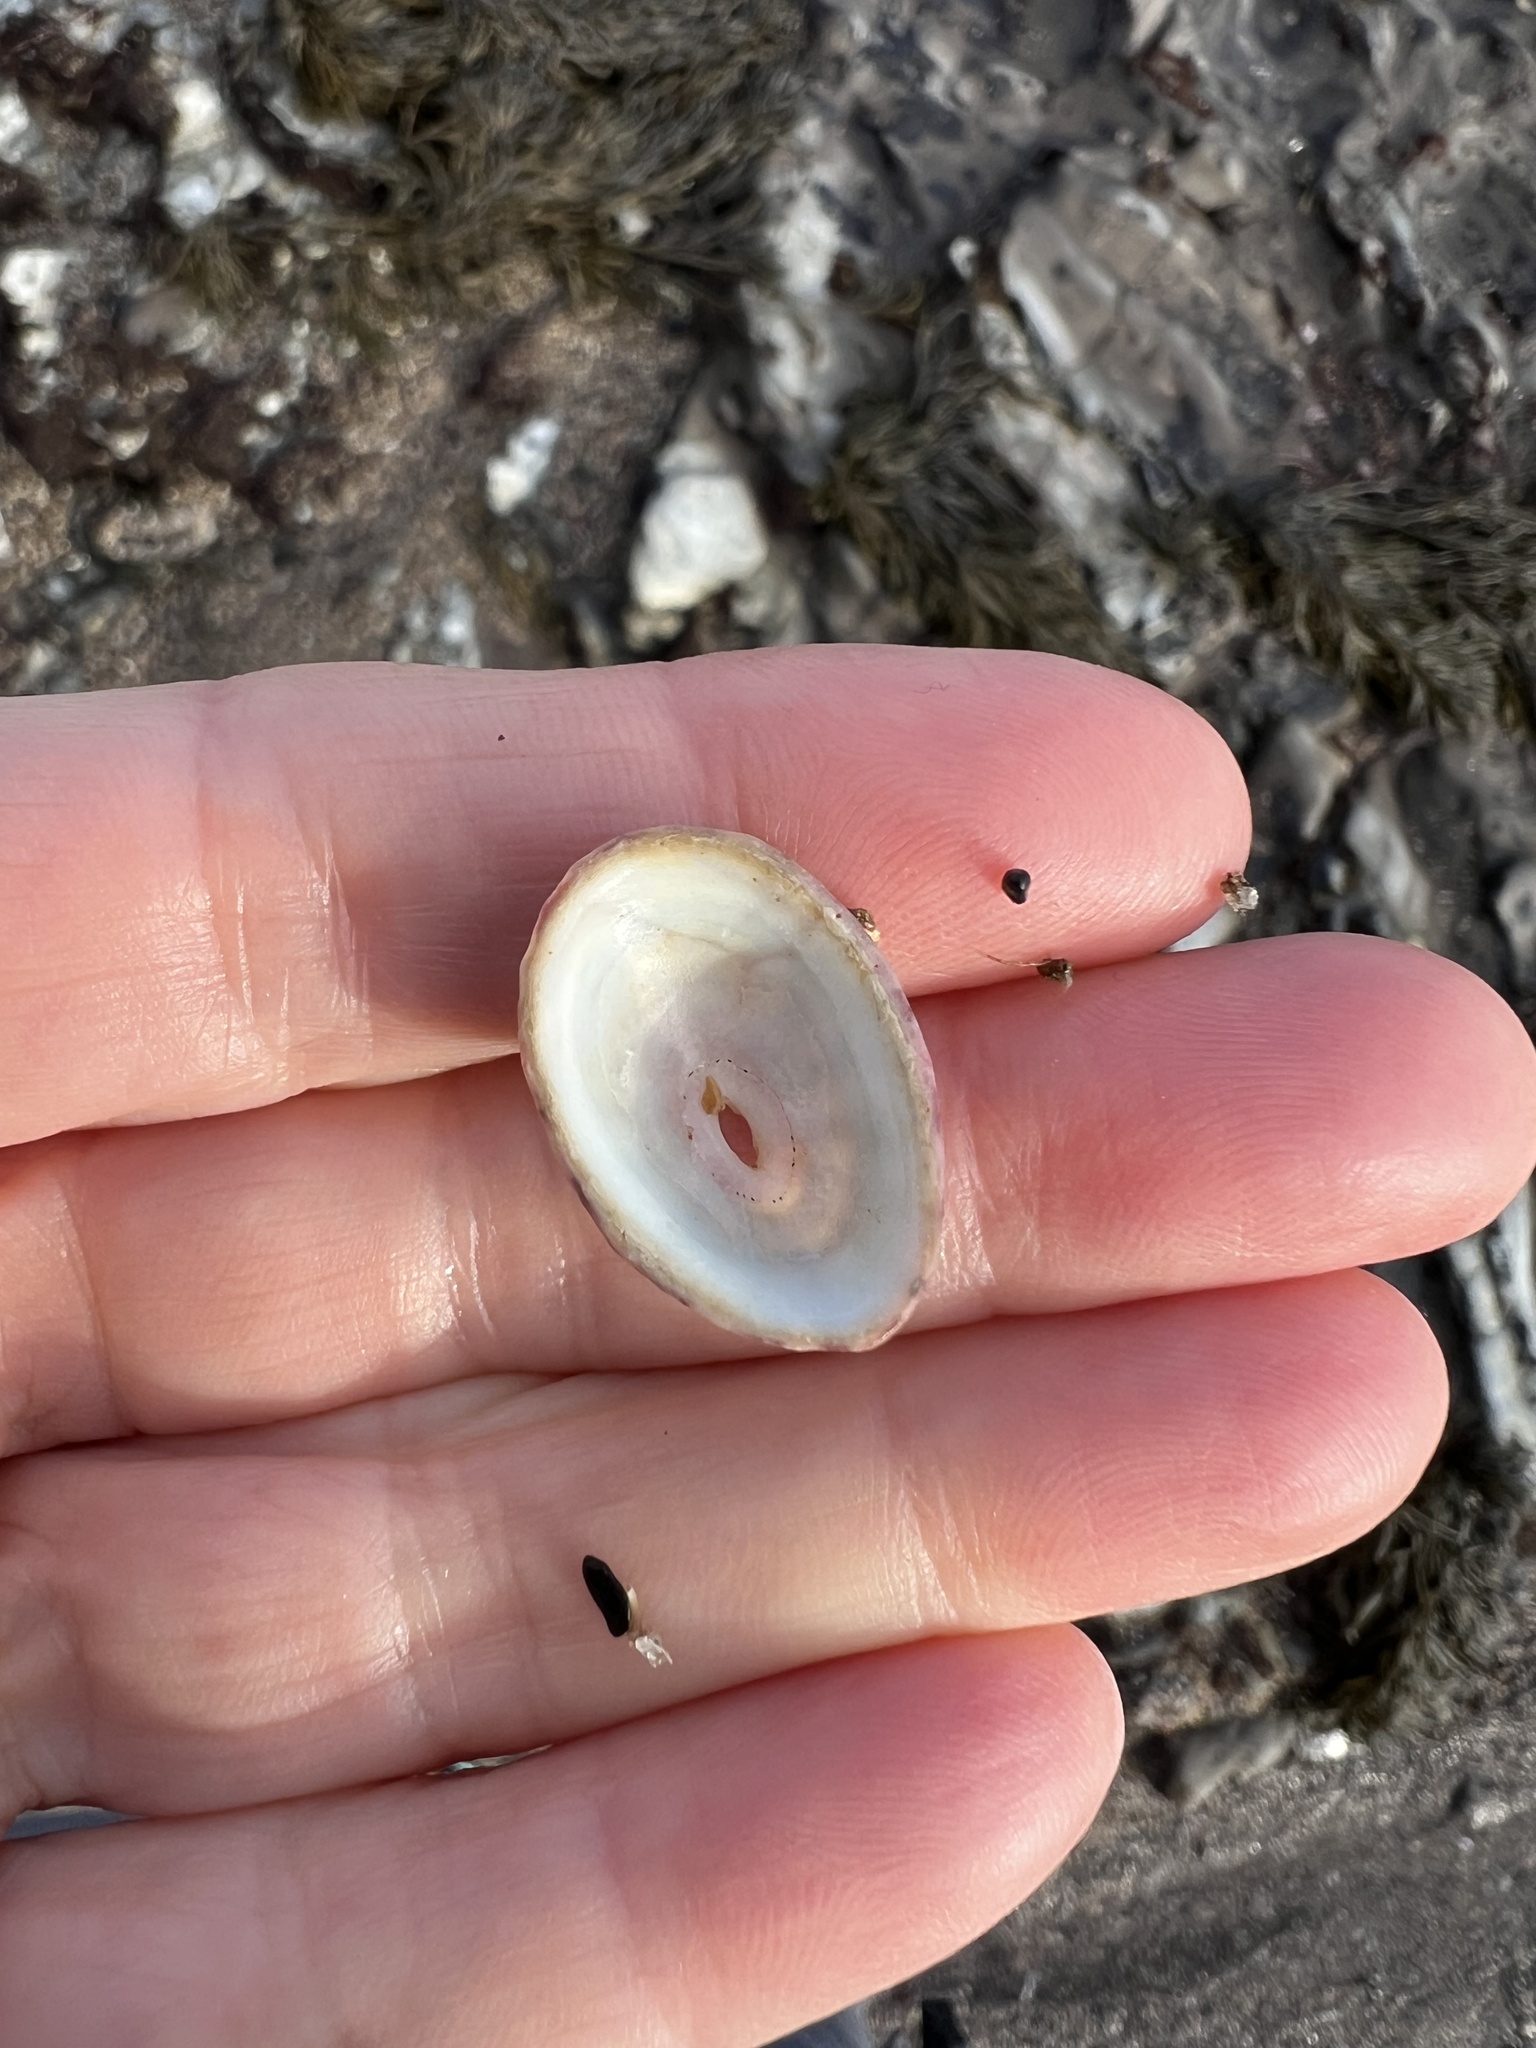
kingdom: Animalia
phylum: Mollusca
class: Gastropoda
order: Lepetellida
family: Fissurellidae
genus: Fissurella
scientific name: Fissurella volcano
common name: Volcano keyhole limpet
